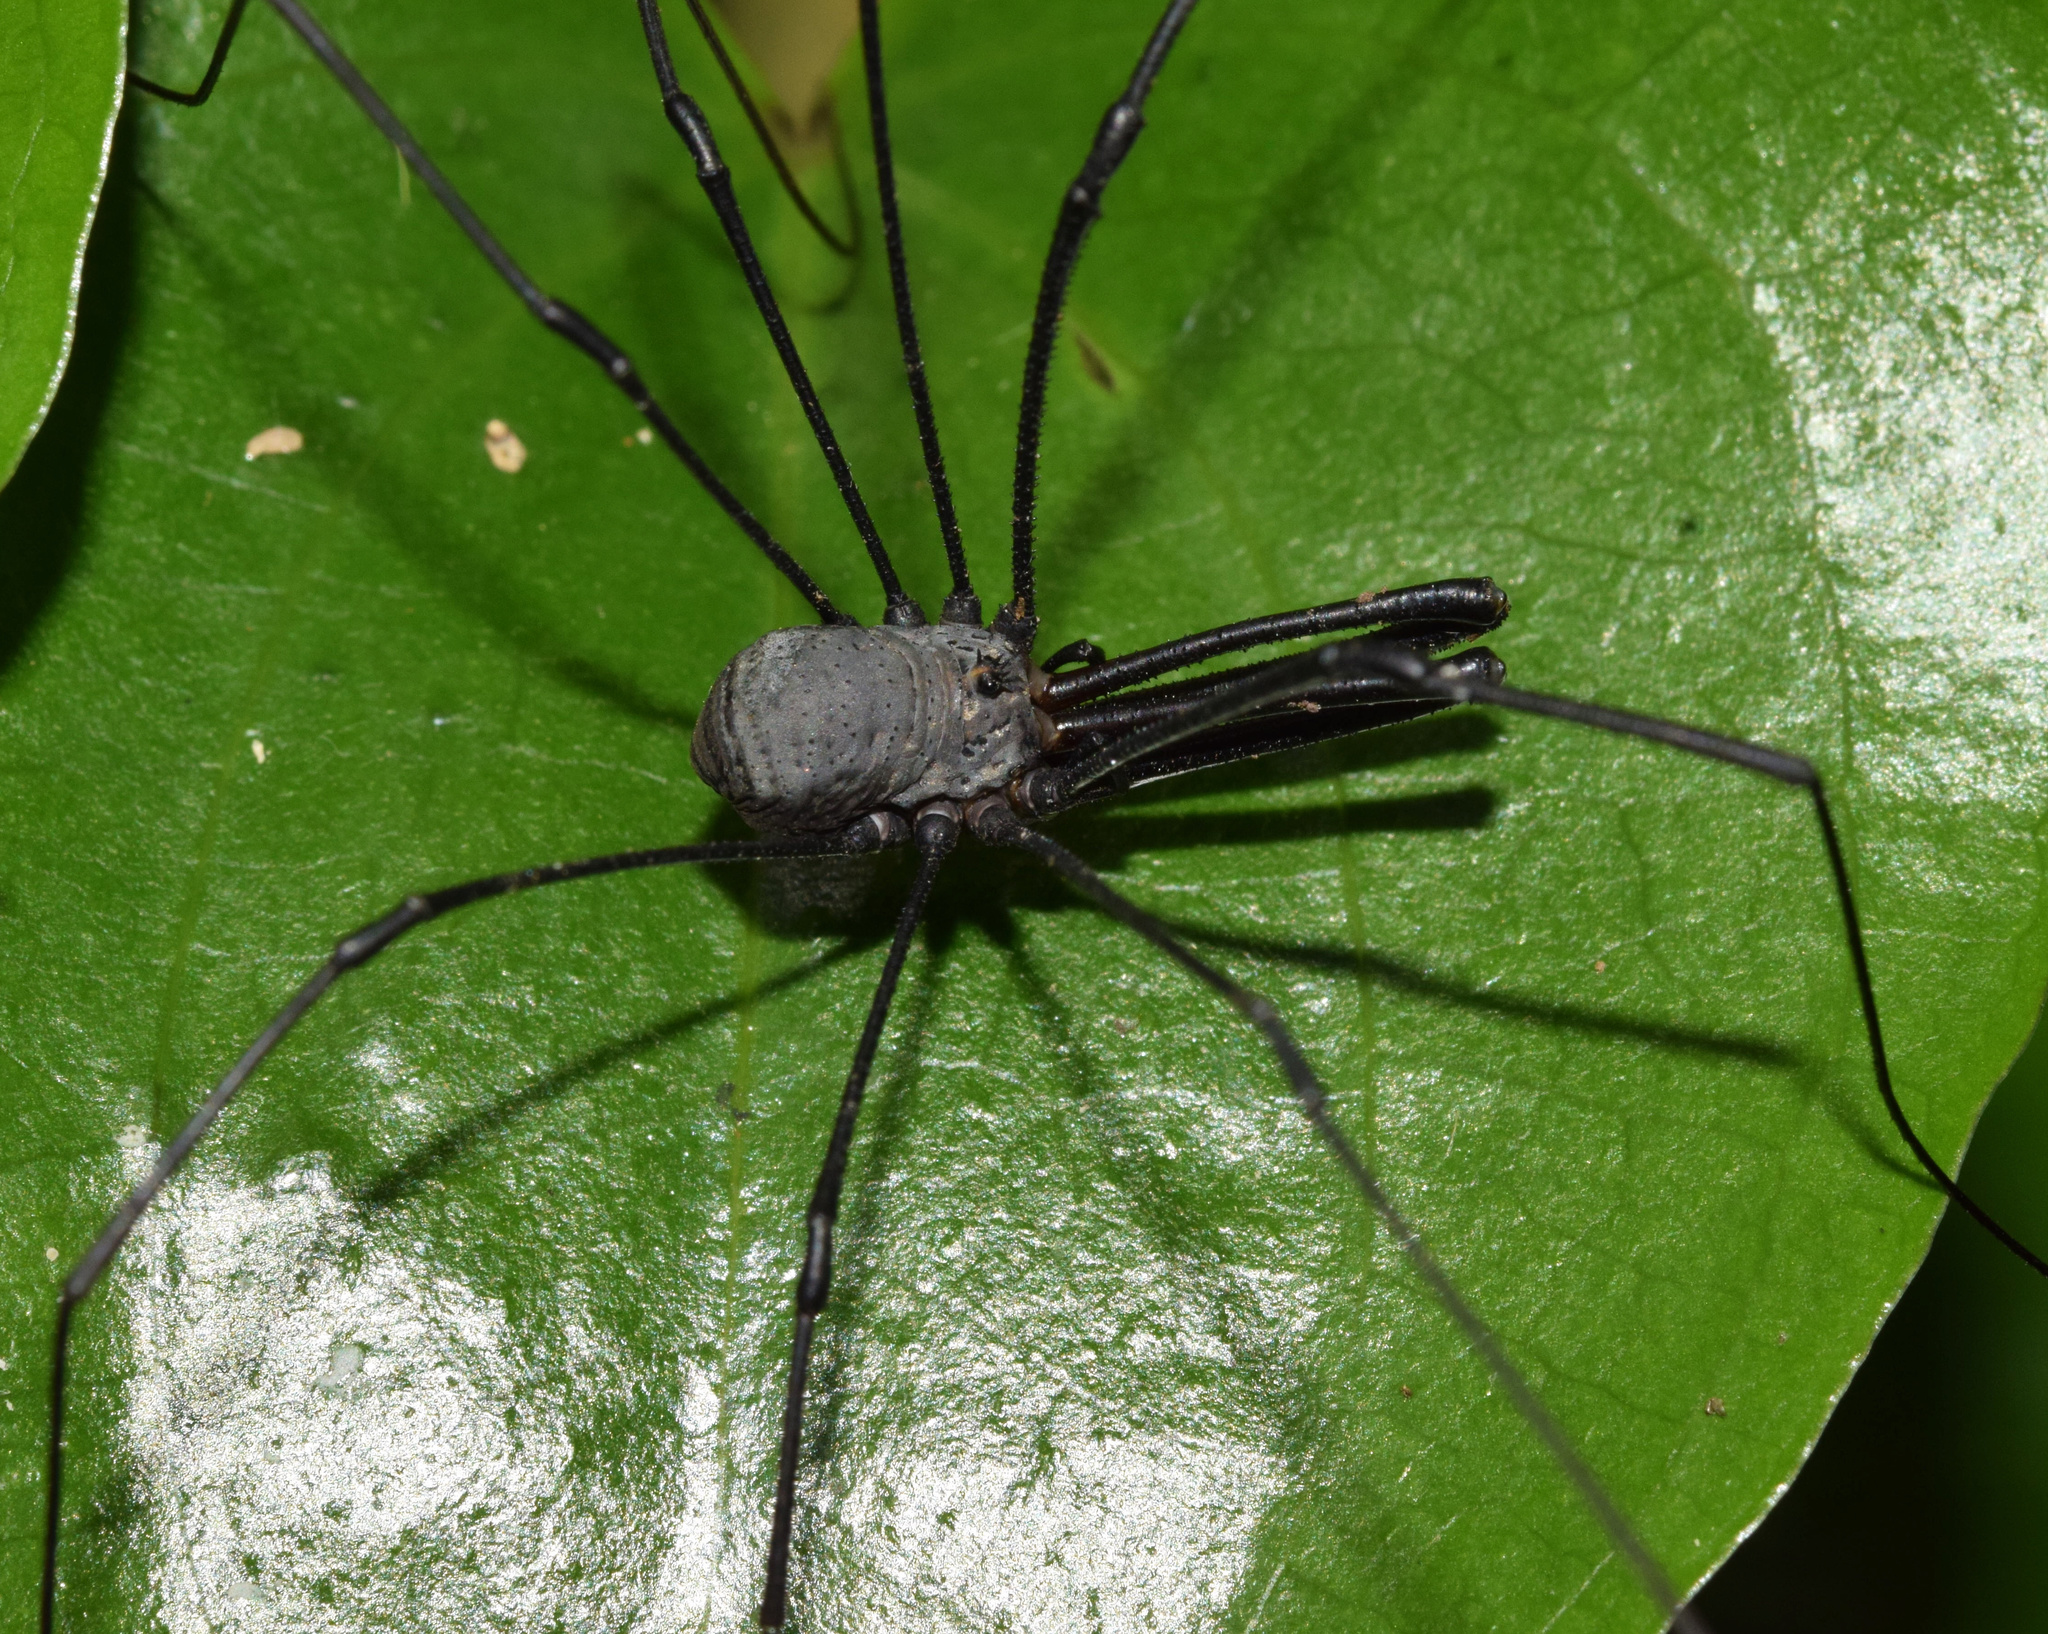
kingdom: Animalia
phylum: Arthropoda
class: Arachnida
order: Opiliones
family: Phalangiidae
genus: Rhampsinitus
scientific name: Rhampsinitus leighi
